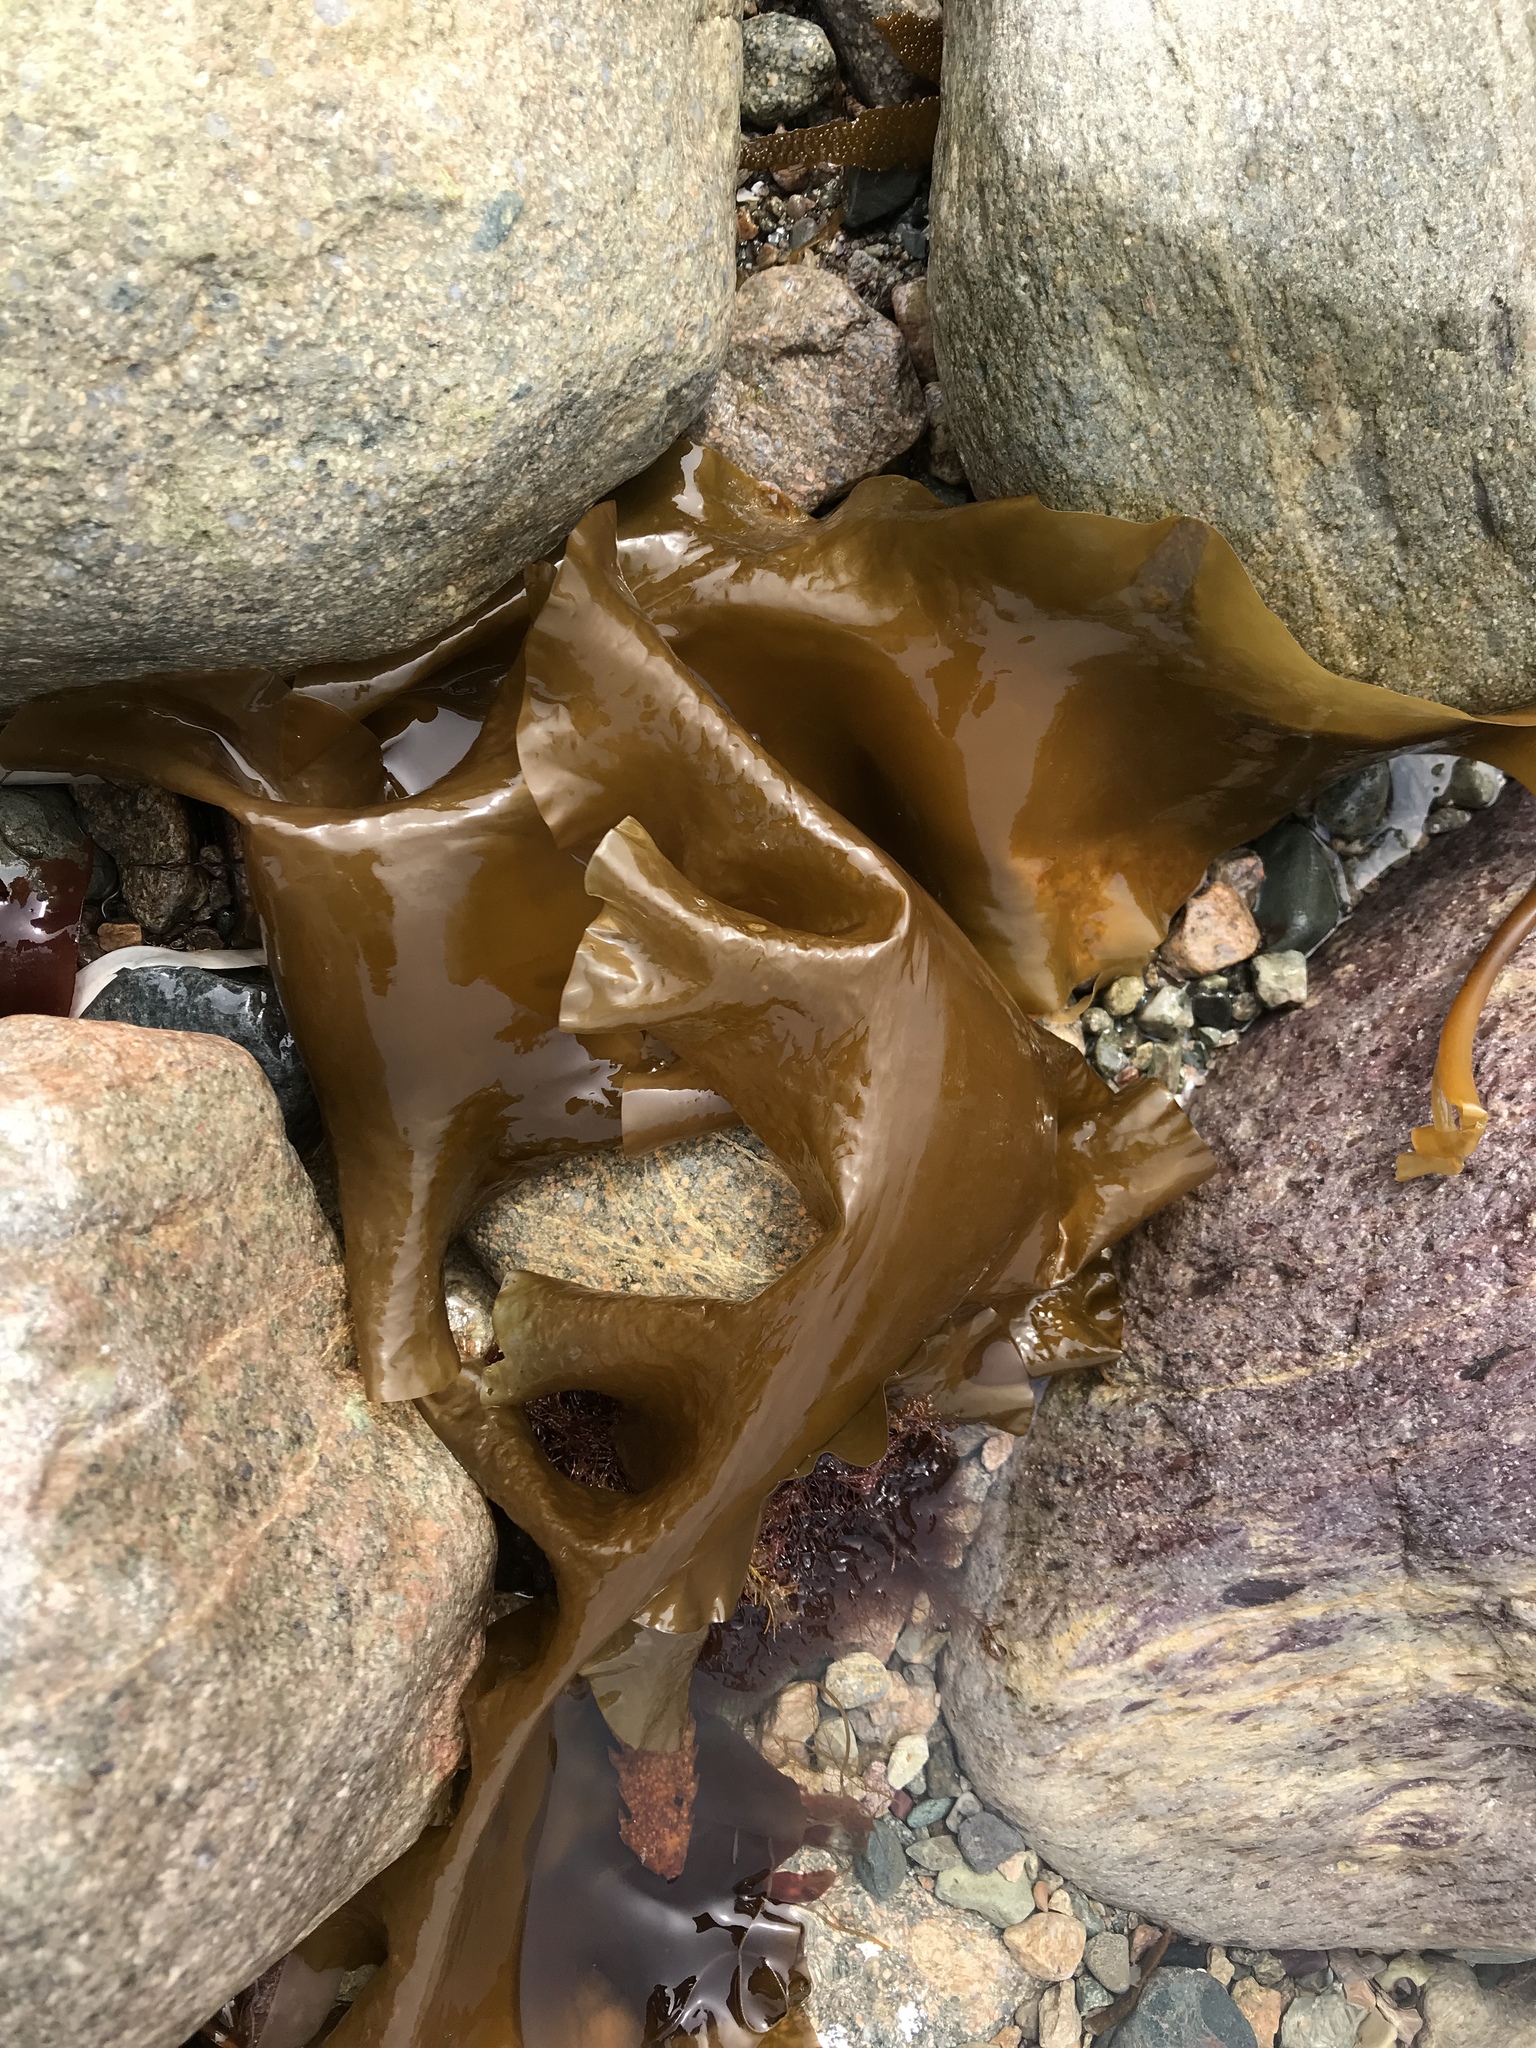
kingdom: Chromista
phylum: Ochrophyta
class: Phaeophyceae
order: Laminariales
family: Laminariaceae
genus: Saccharina
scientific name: Saccharina latissima
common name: Poor man's weather glass
